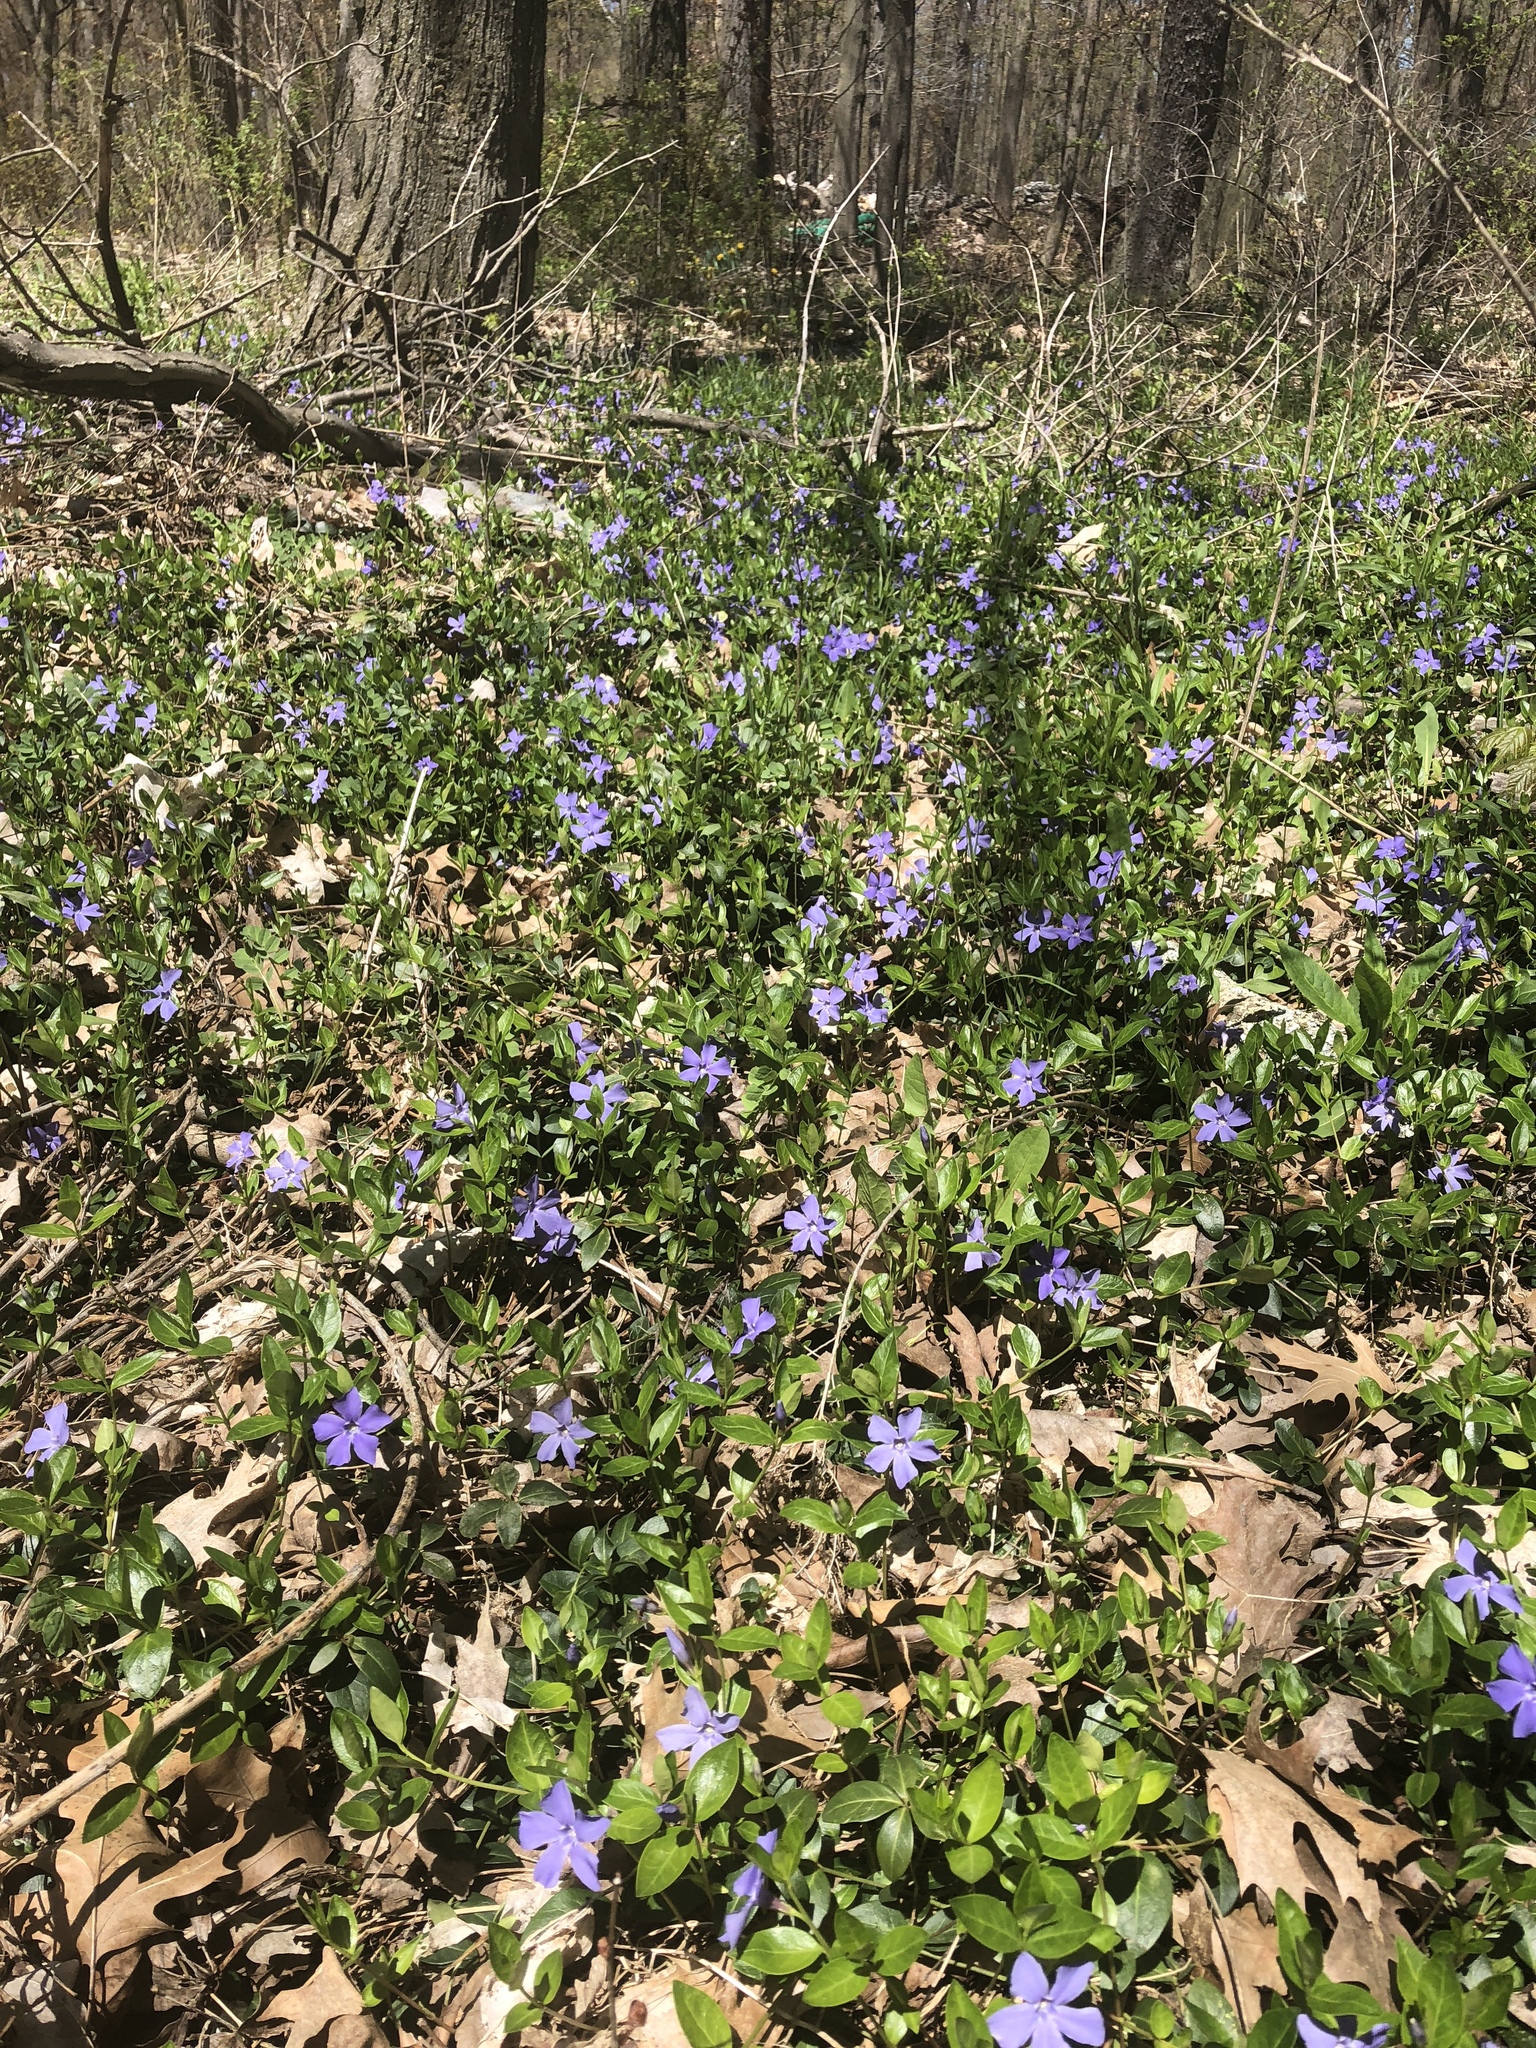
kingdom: Plantae
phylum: Tracheophyta
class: Magnoliopsida
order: Gentianales
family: Apocynaceae
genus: Vinca
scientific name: Vinca minor
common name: Lesser periwinkle
